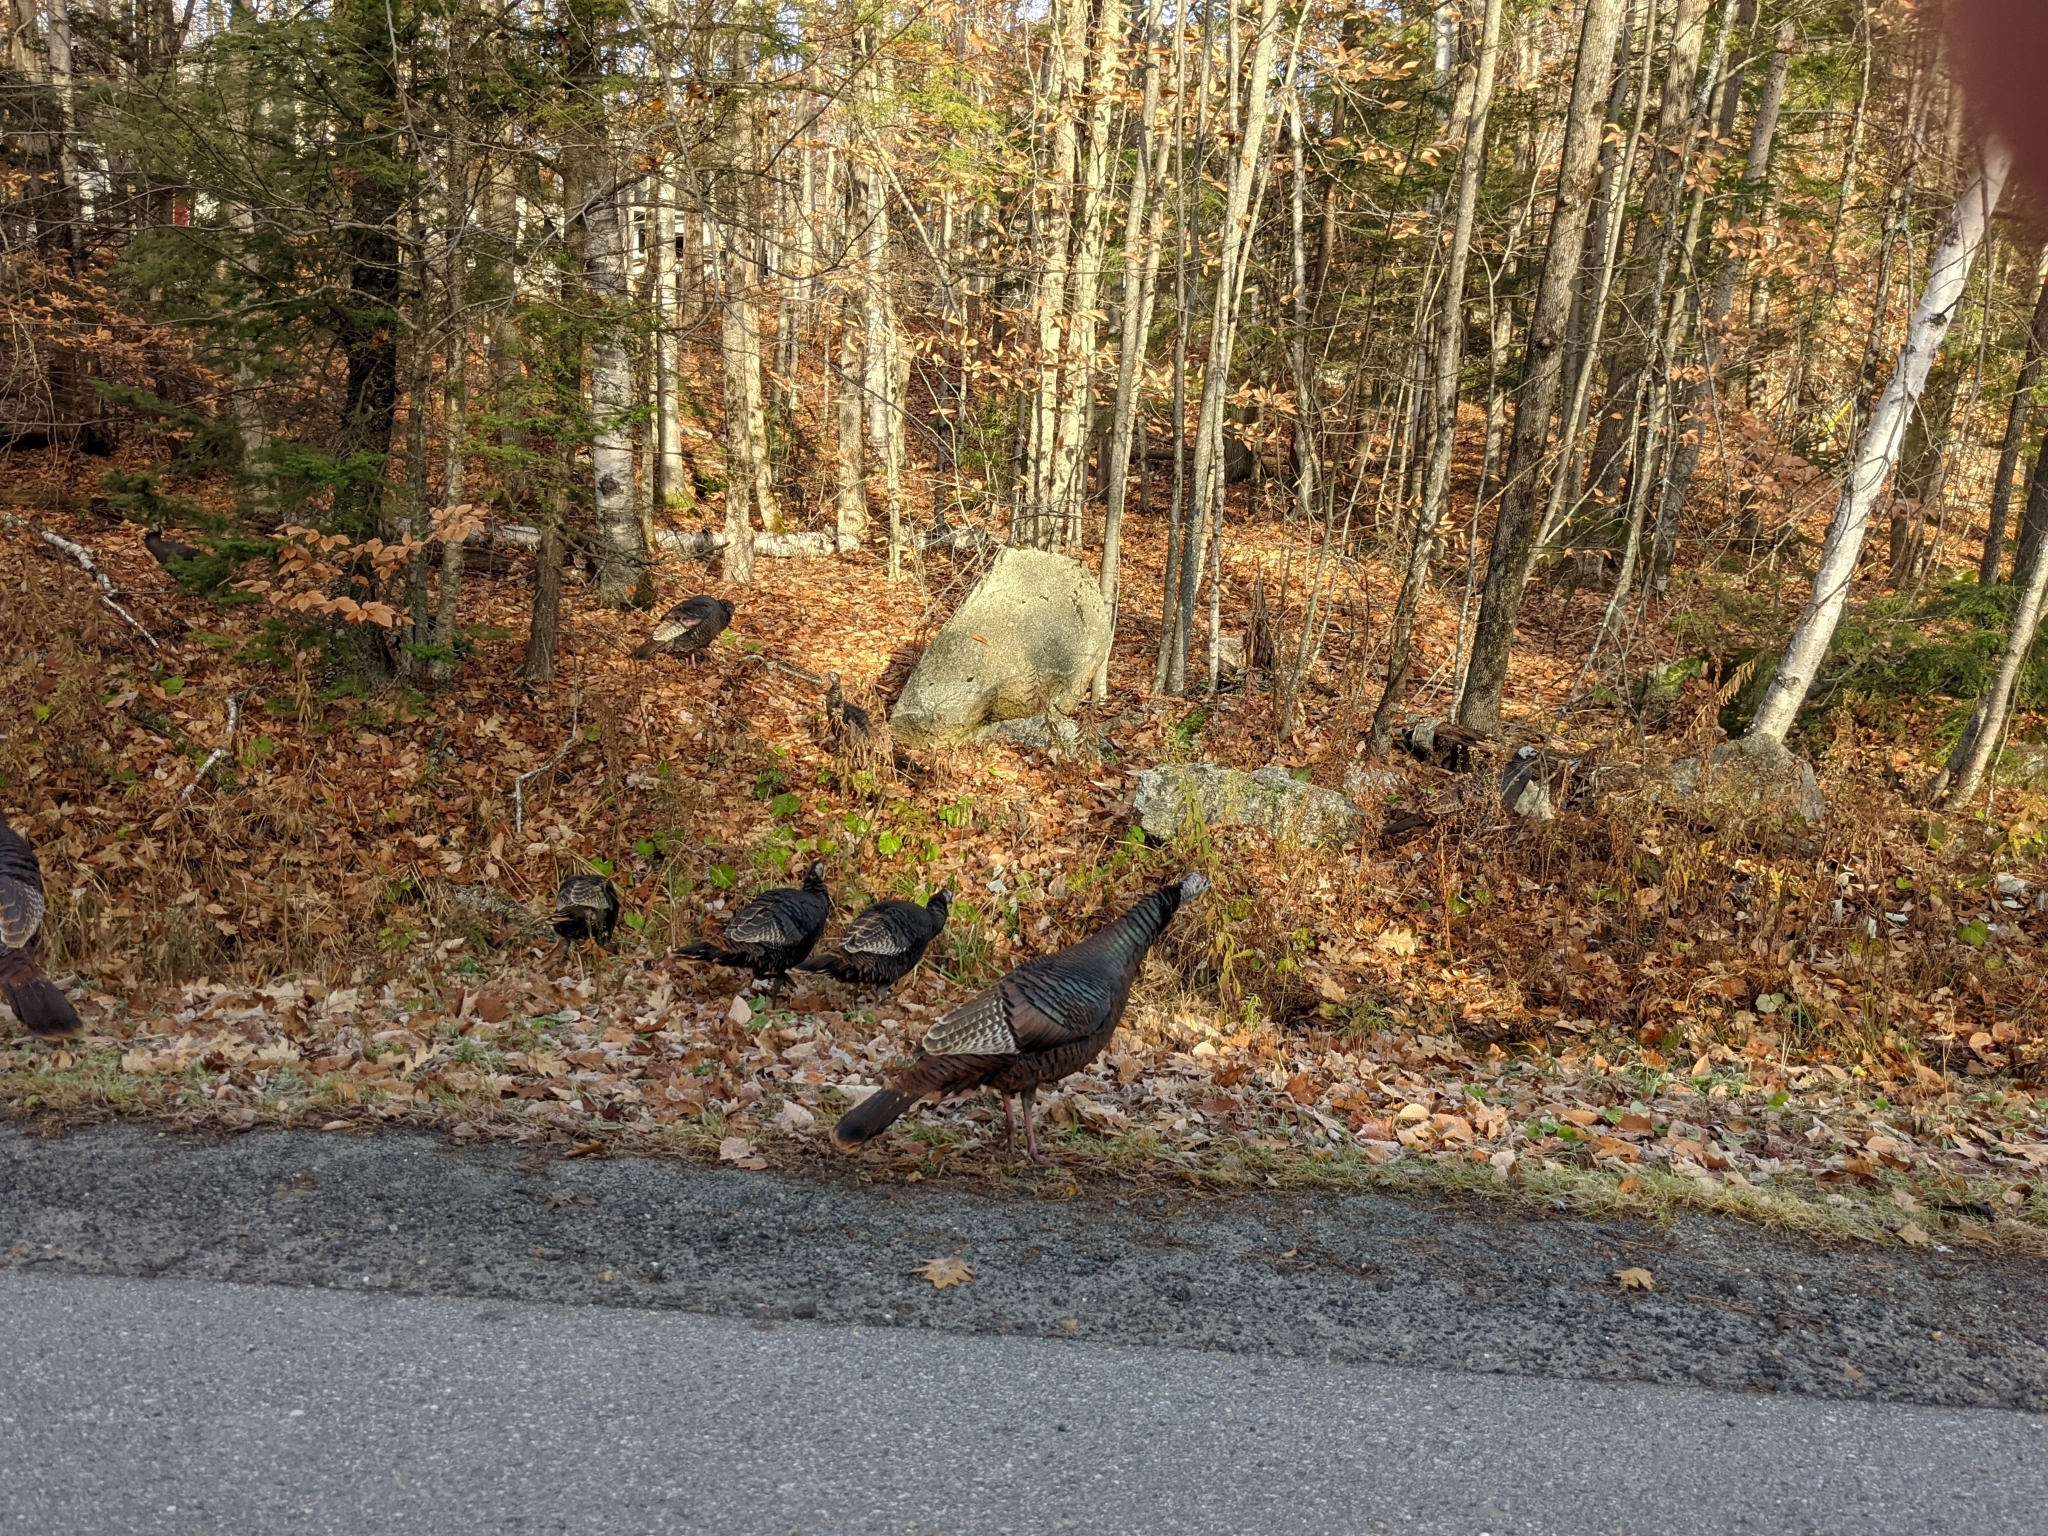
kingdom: Animalia
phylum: Chordata
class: Aves
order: Galliformes
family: Phasianidae
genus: Meleagris
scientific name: Meleagris gallopavo
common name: Wild turkey
